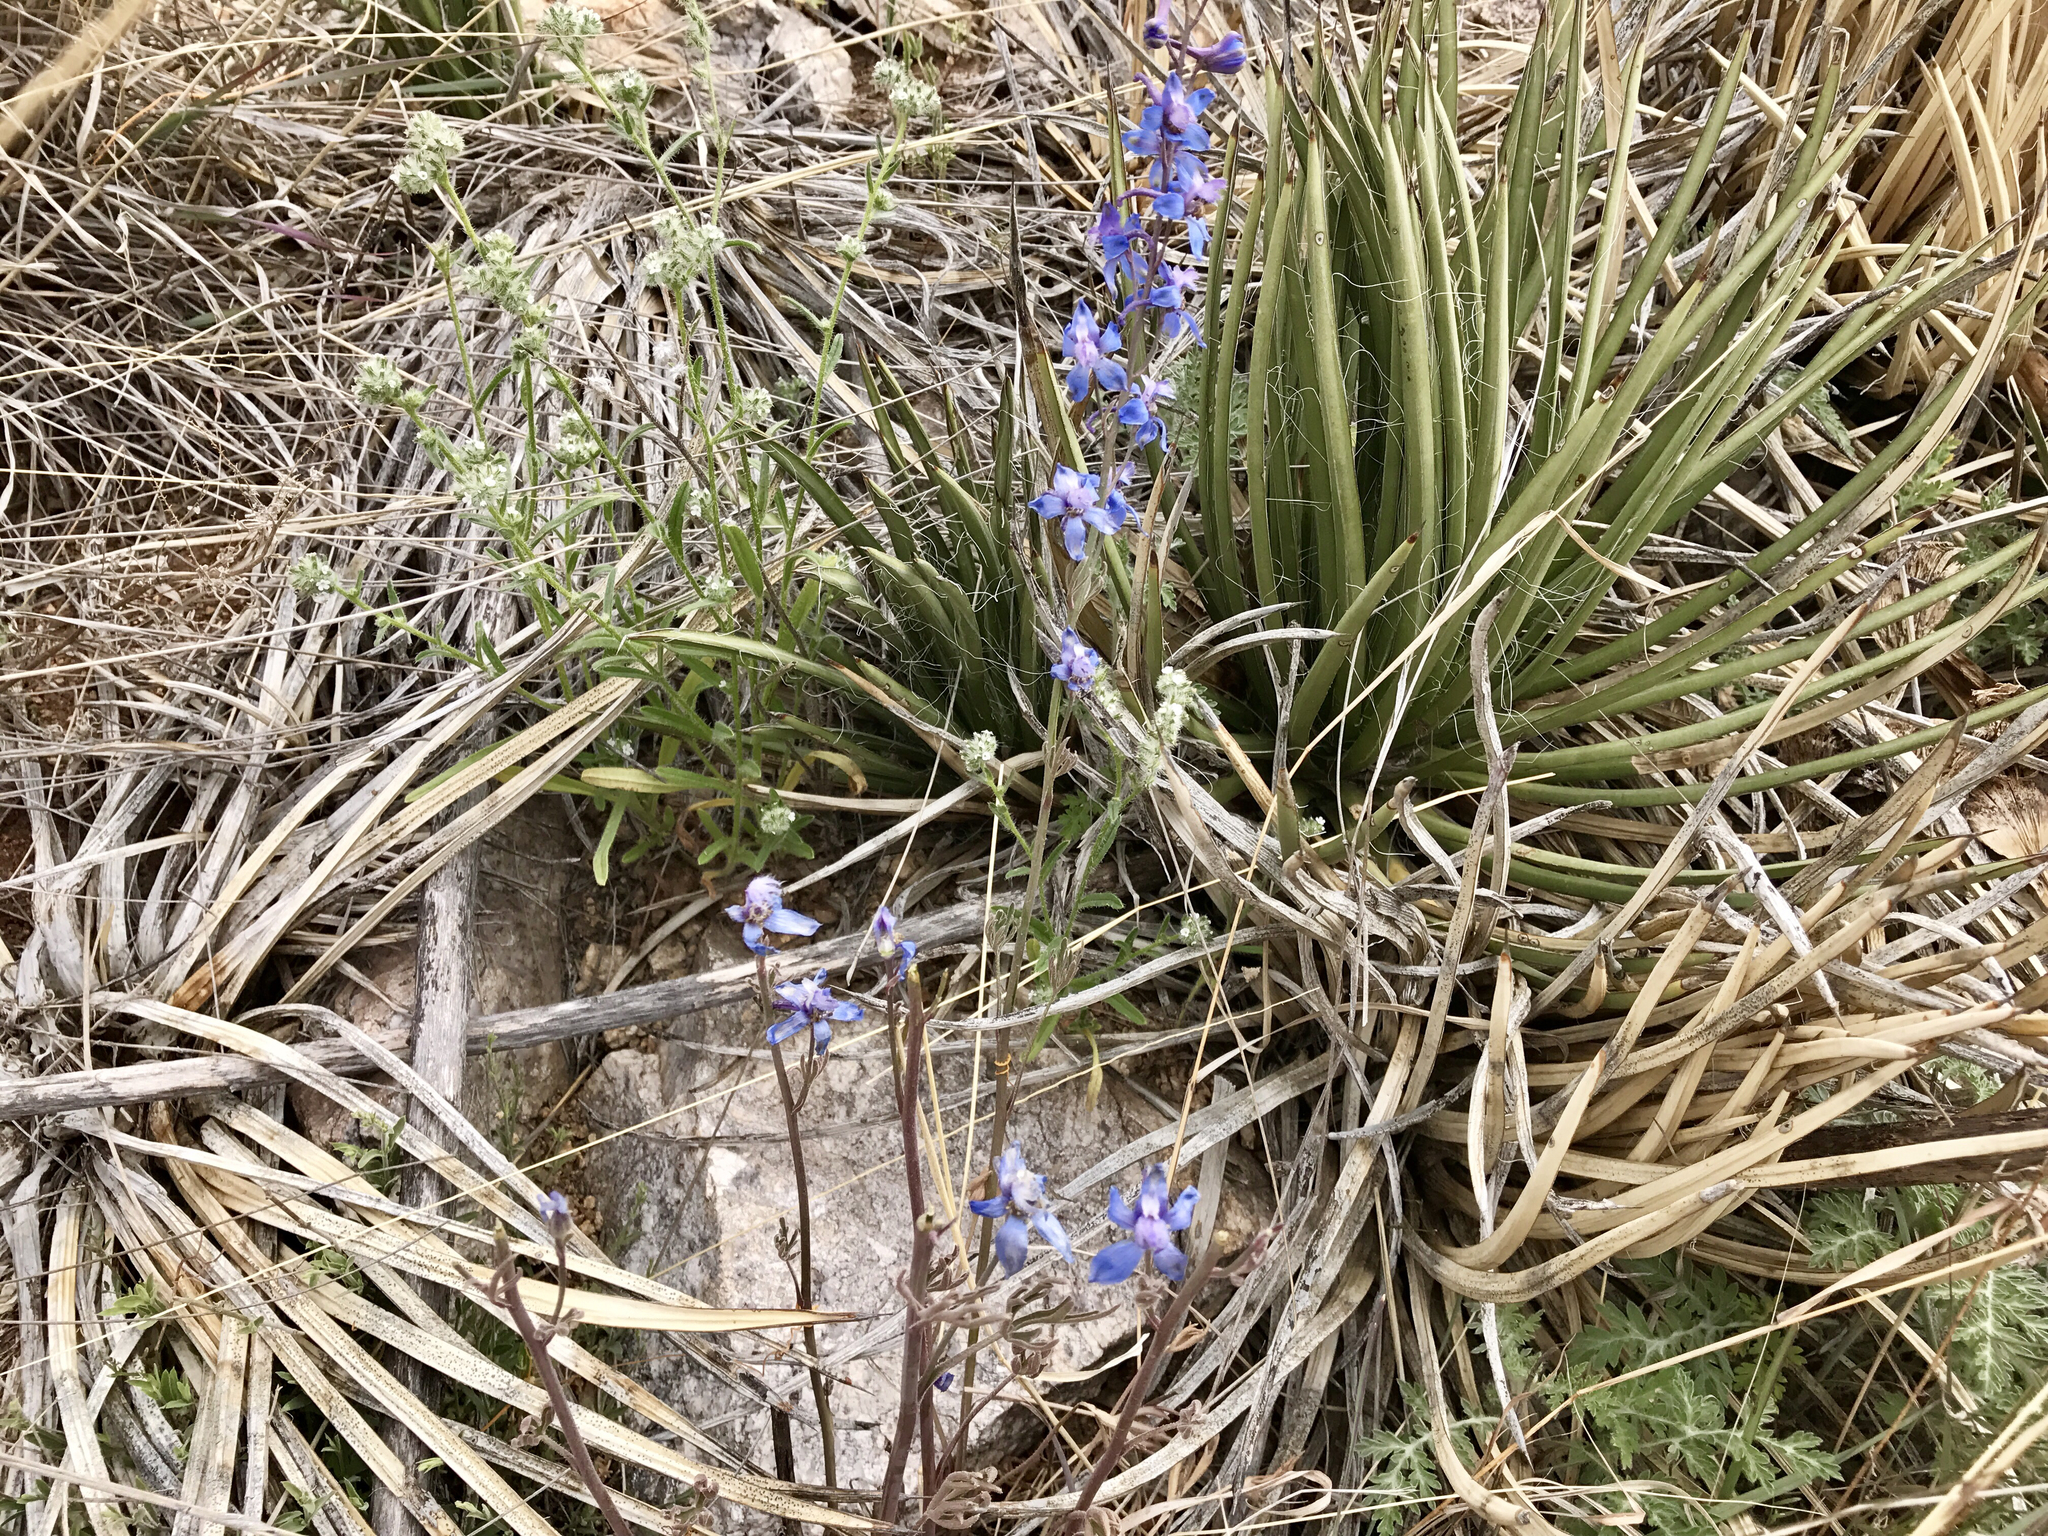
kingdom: Plantae
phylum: Tracheophyta
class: Magnoliopsida
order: Ranunculales
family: Ranunculaceae
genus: Delphinium
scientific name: Delphinium parishii
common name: Apache larkspur
